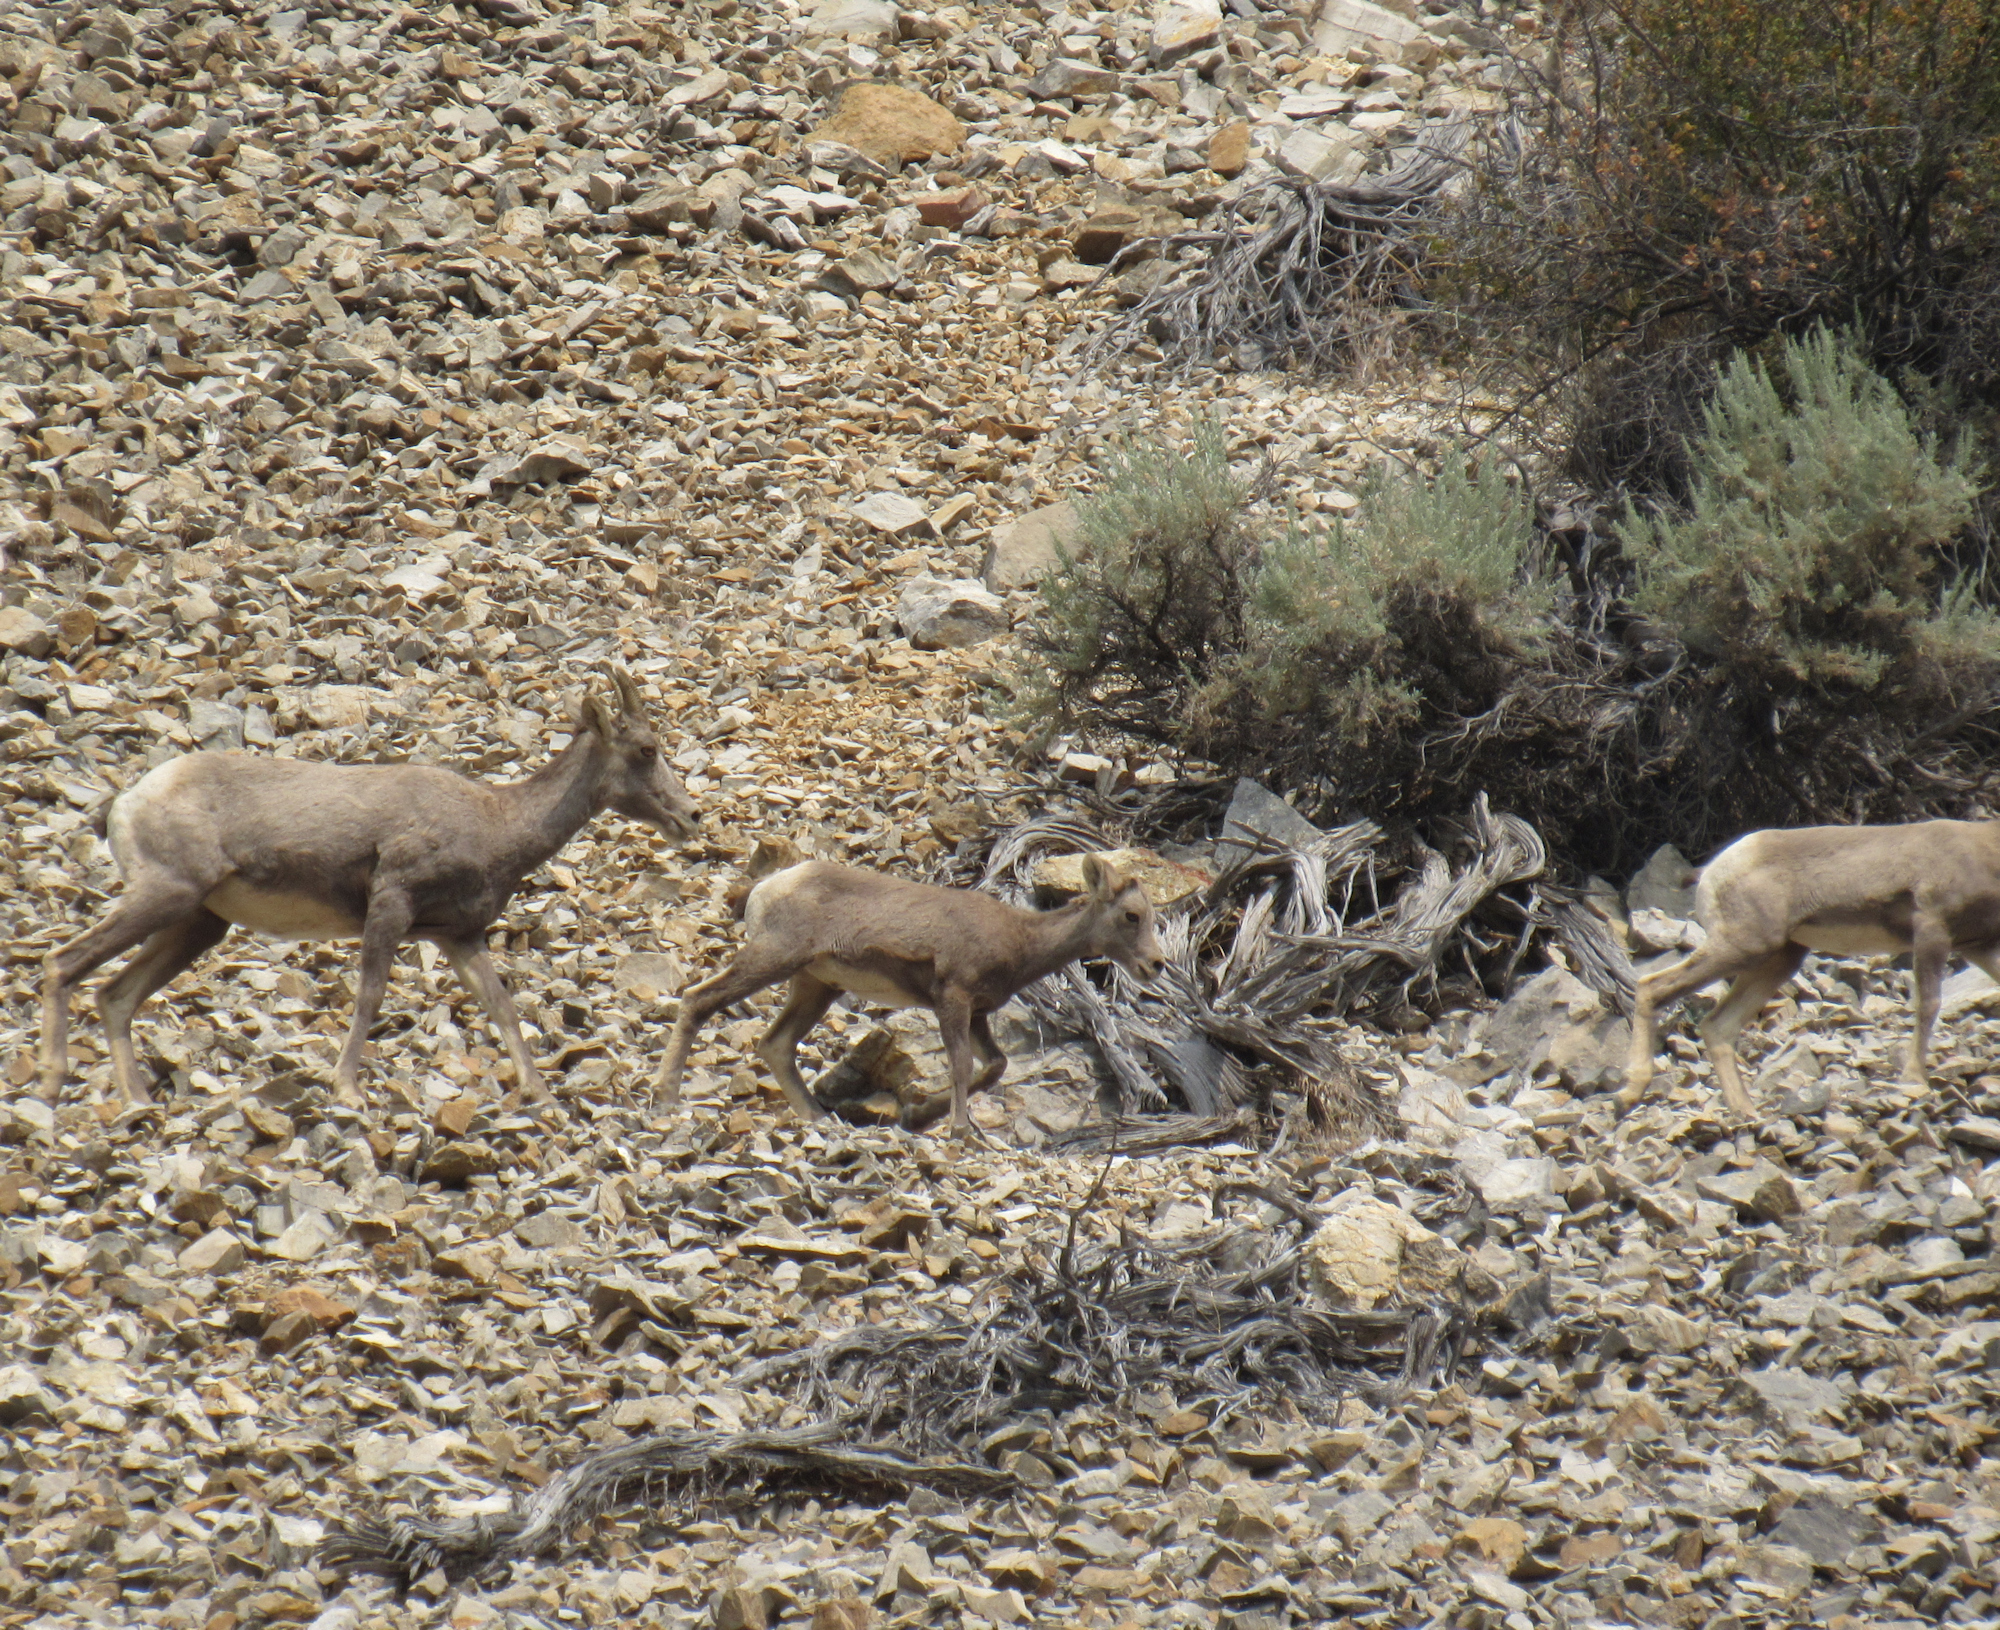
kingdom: Animalia
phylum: Chordata
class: Mammalia
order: Artiodactyla
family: Bovidae
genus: Ovis
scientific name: Ovis canadensis
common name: Bighorn sheep
